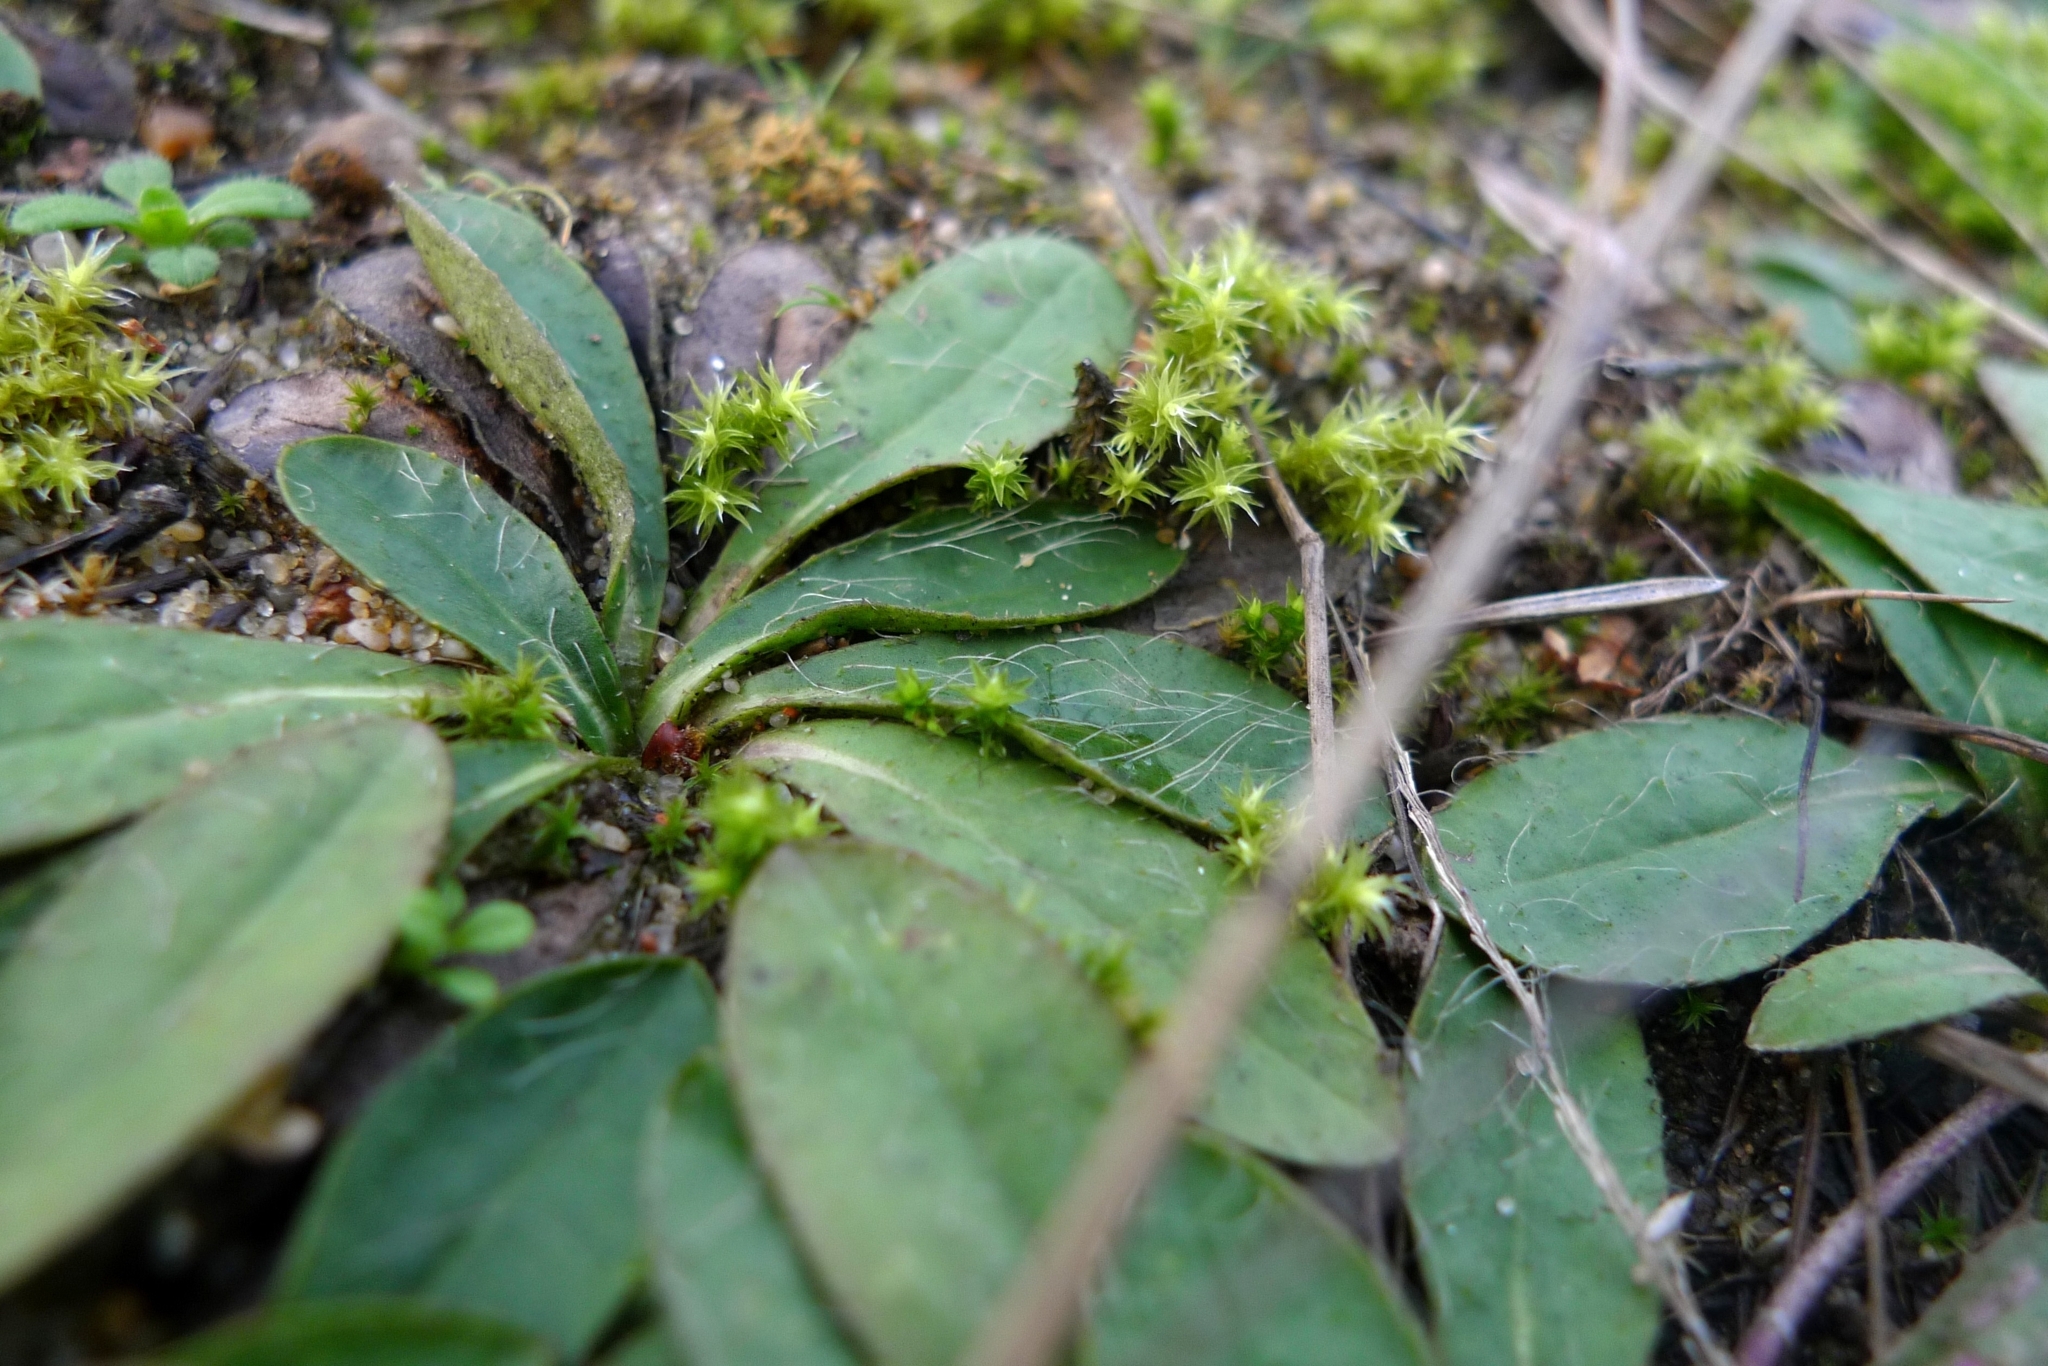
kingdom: Plantae
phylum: Tracheophyta
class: Magnoliopsida
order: Asterales
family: Asteraceae
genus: Pilosella
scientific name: Pilosella officinarum
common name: Mouse-ear hawkweed
